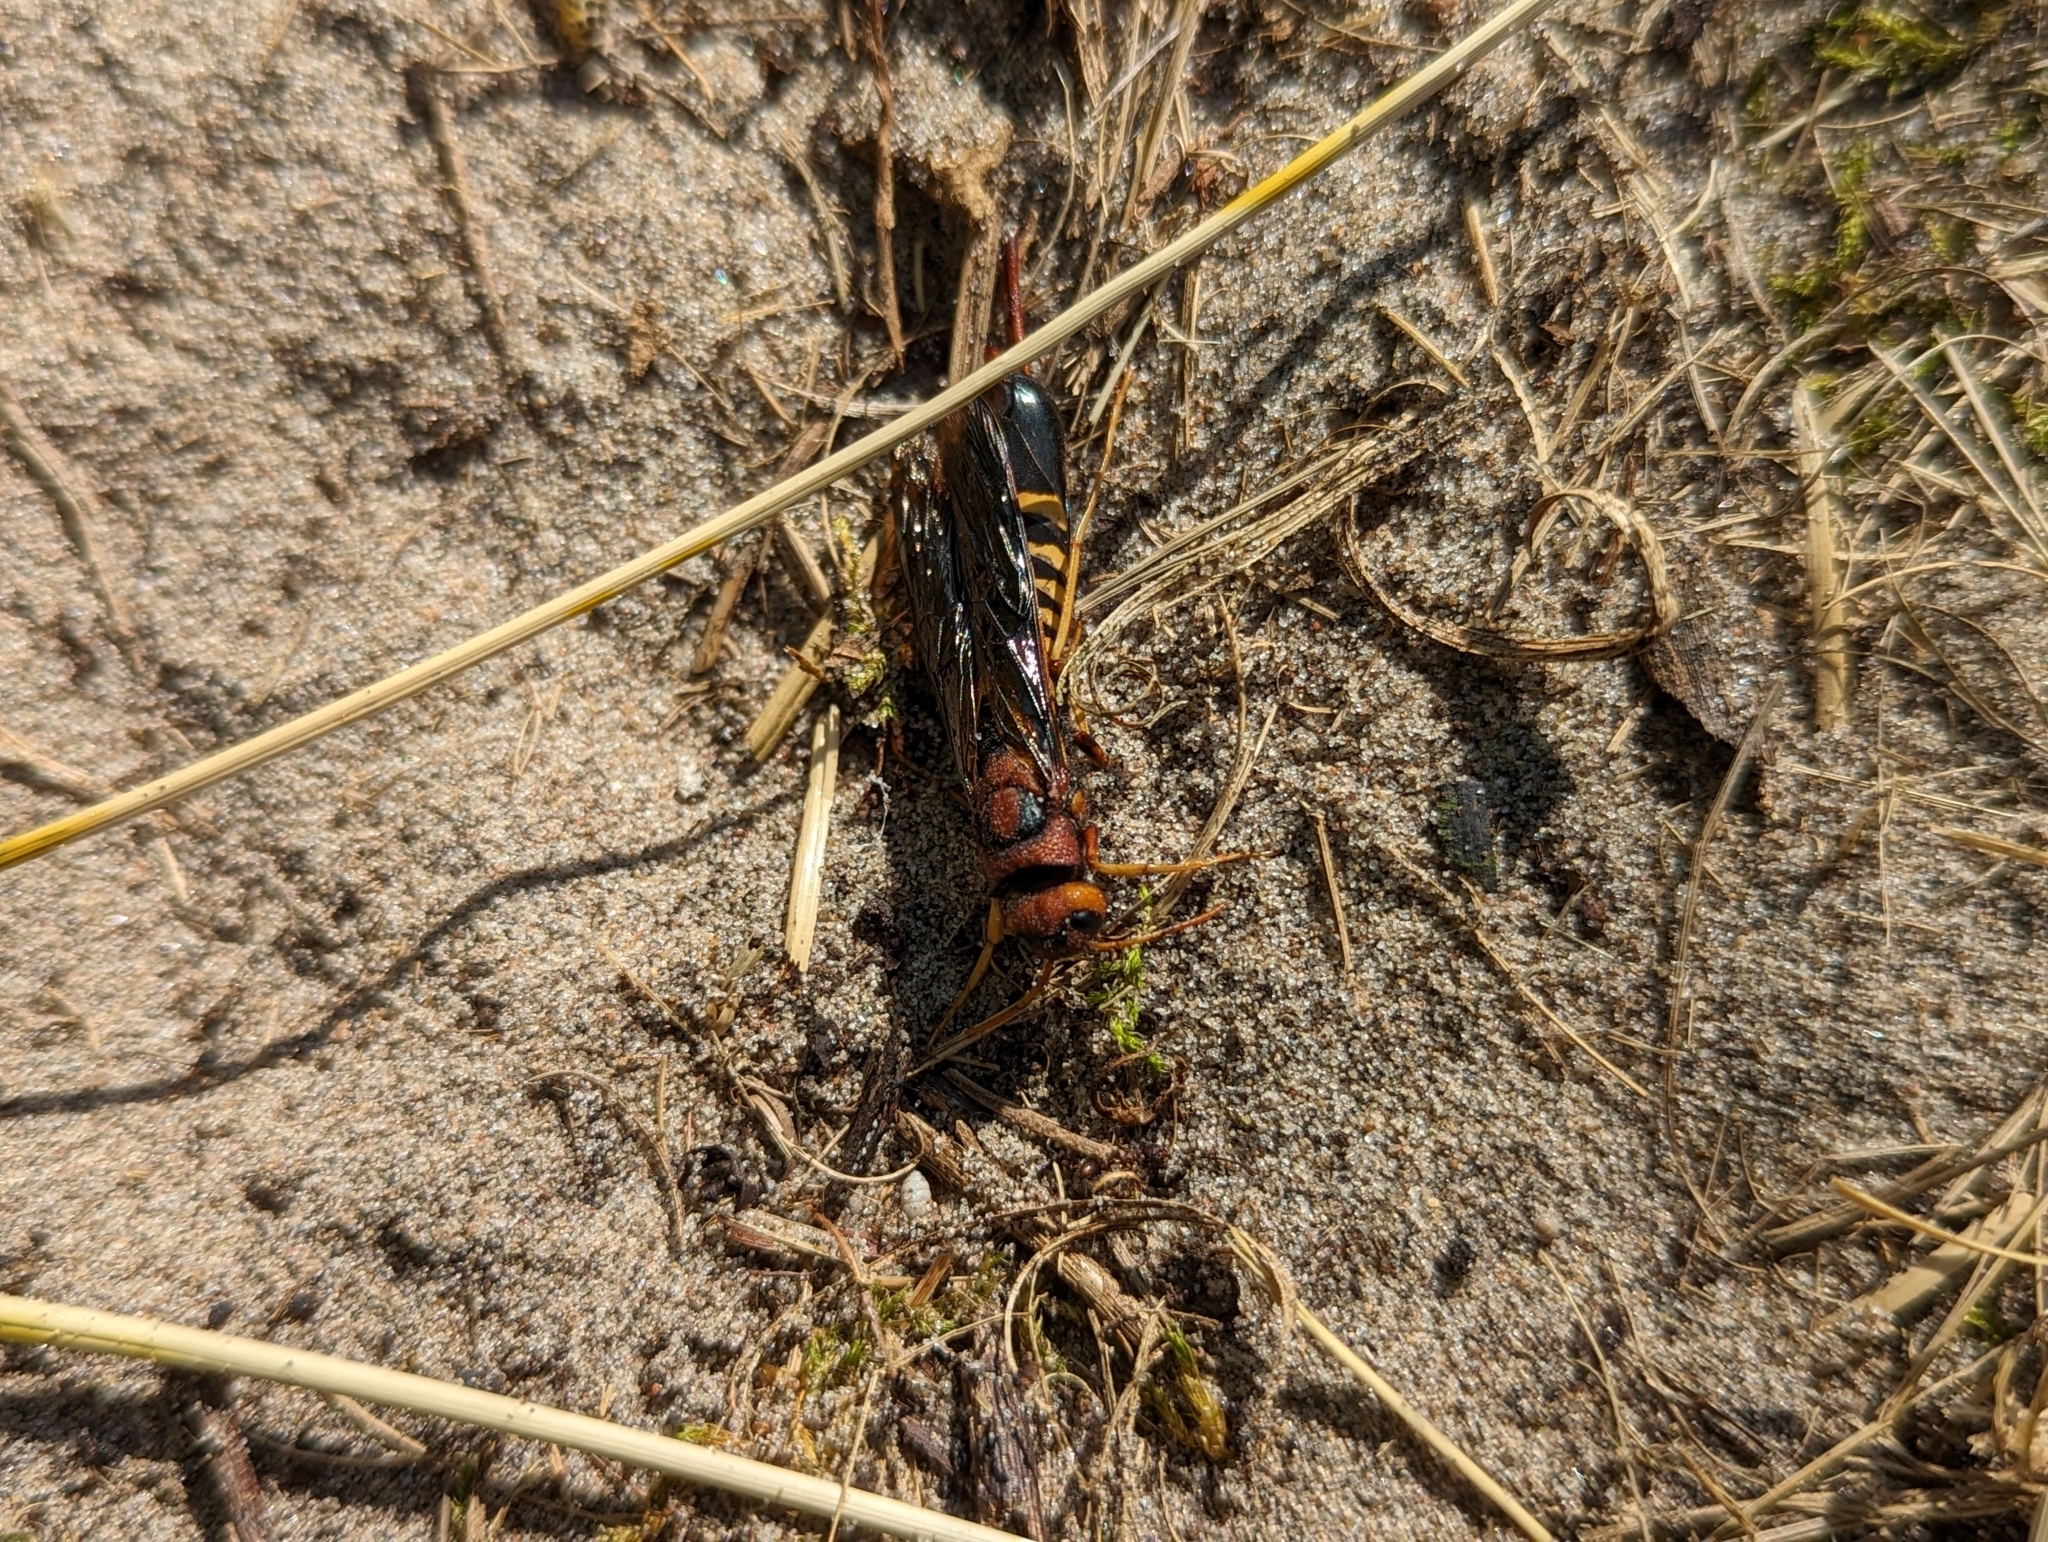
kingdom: Animalia
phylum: Arthropoda
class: Insecta
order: Hymenoptera
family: Siricidae
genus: Tremex
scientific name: Tremex columba
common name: Wasp
